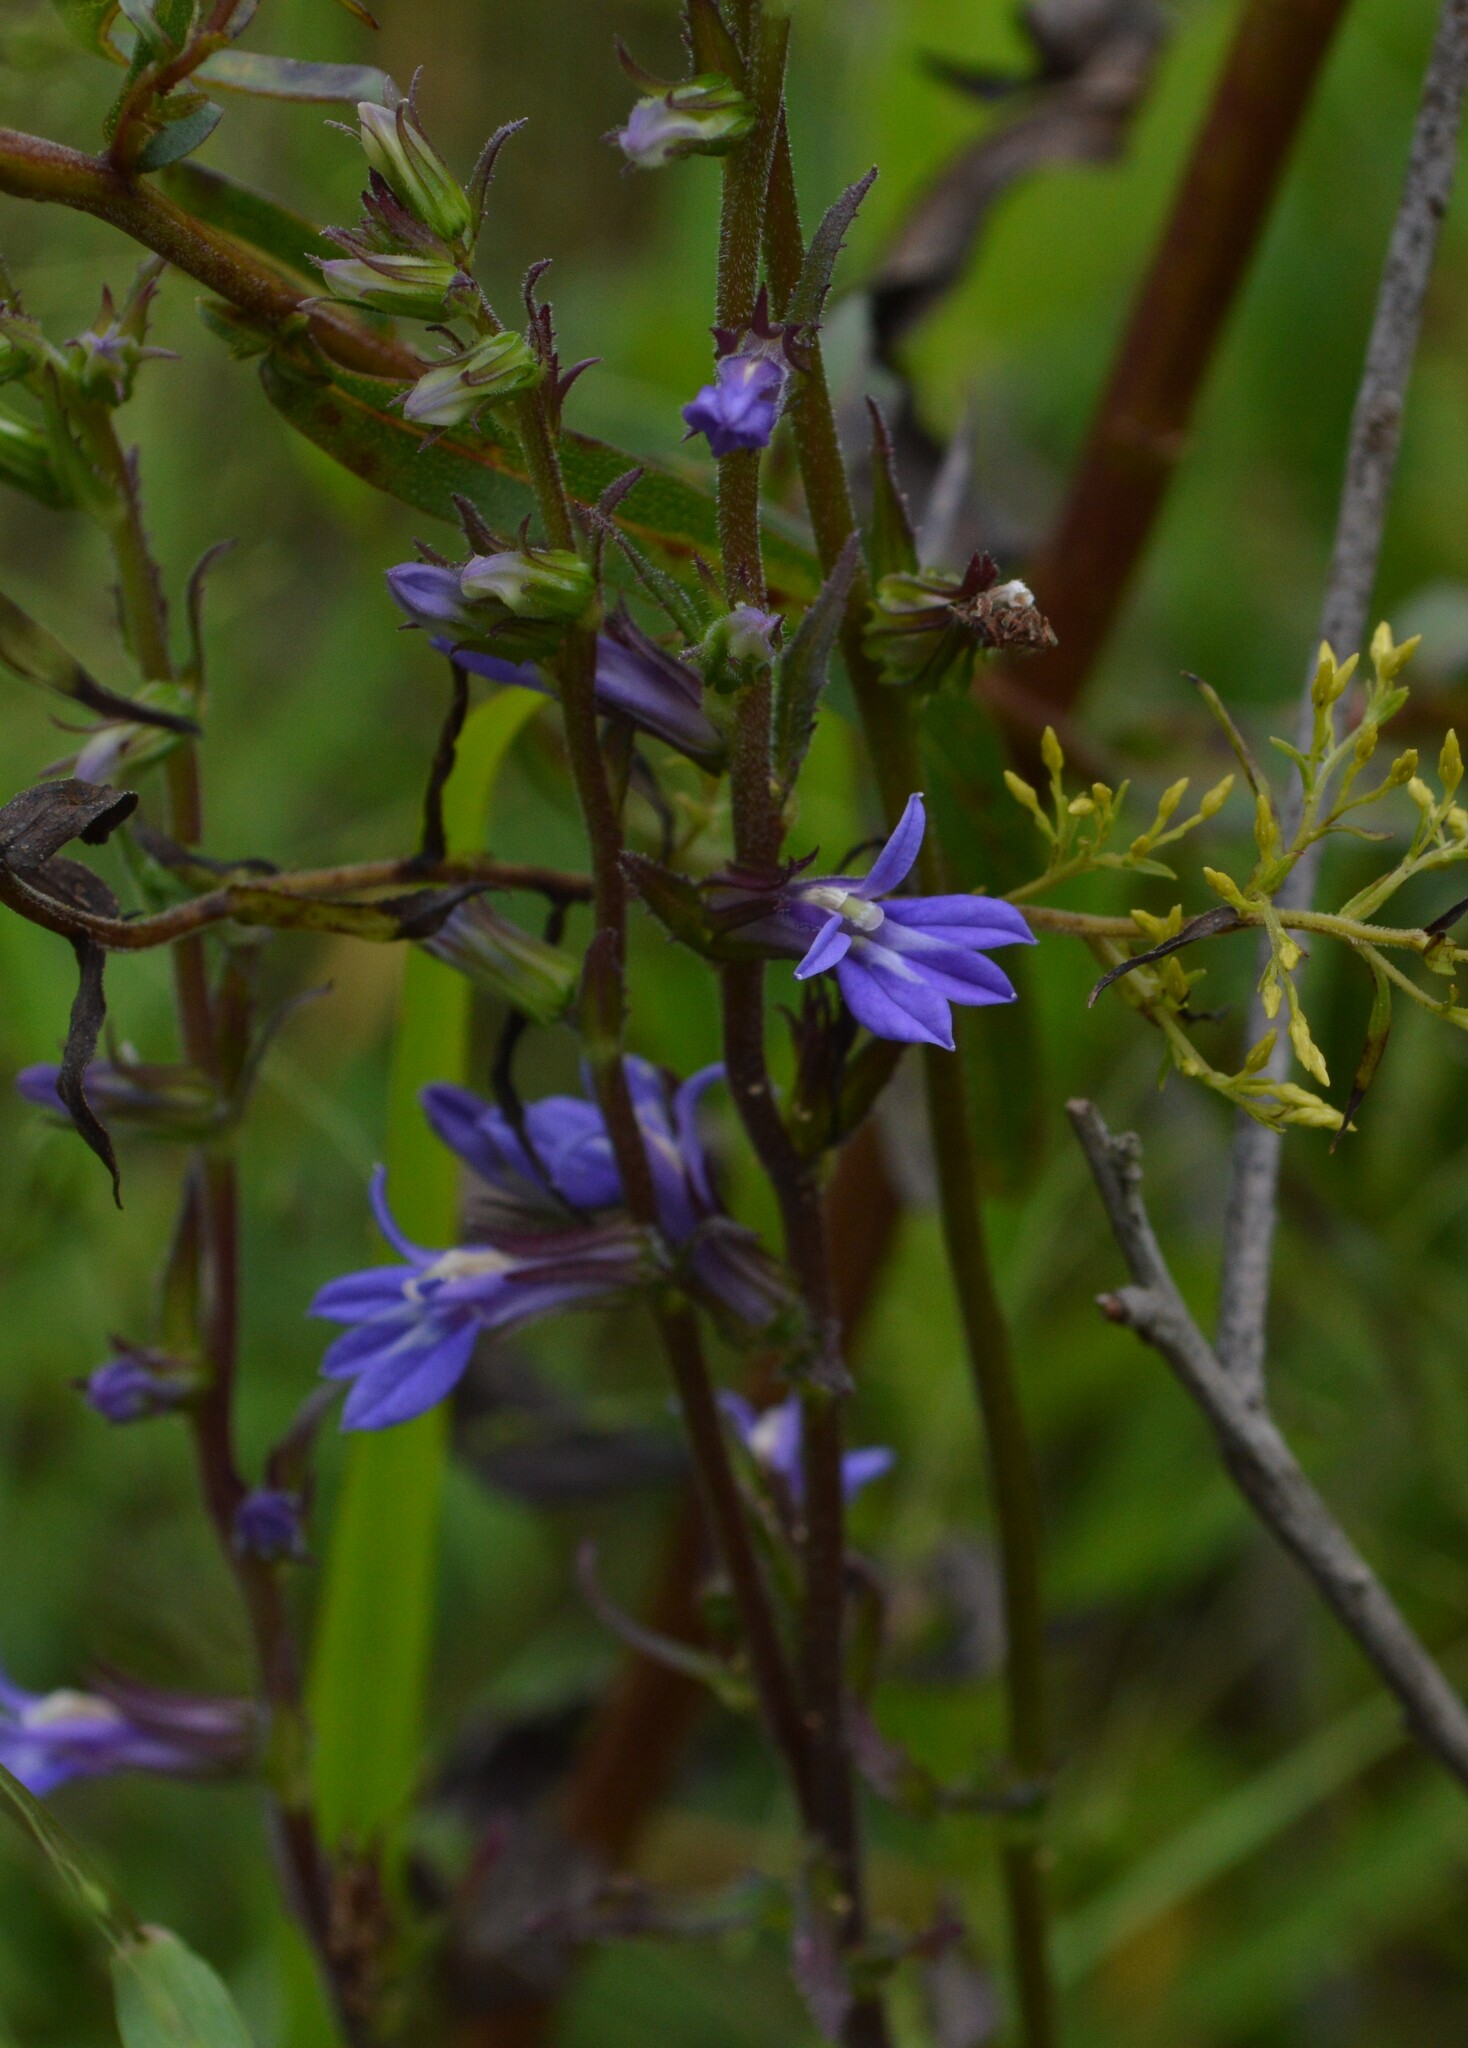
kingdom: Plantae
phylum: Tracheophyta
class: Magnoliopsida
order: Asterales
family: Campanulaceae
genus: Lobelia
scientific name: Lobelia puberula
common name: Purple dewdrop
